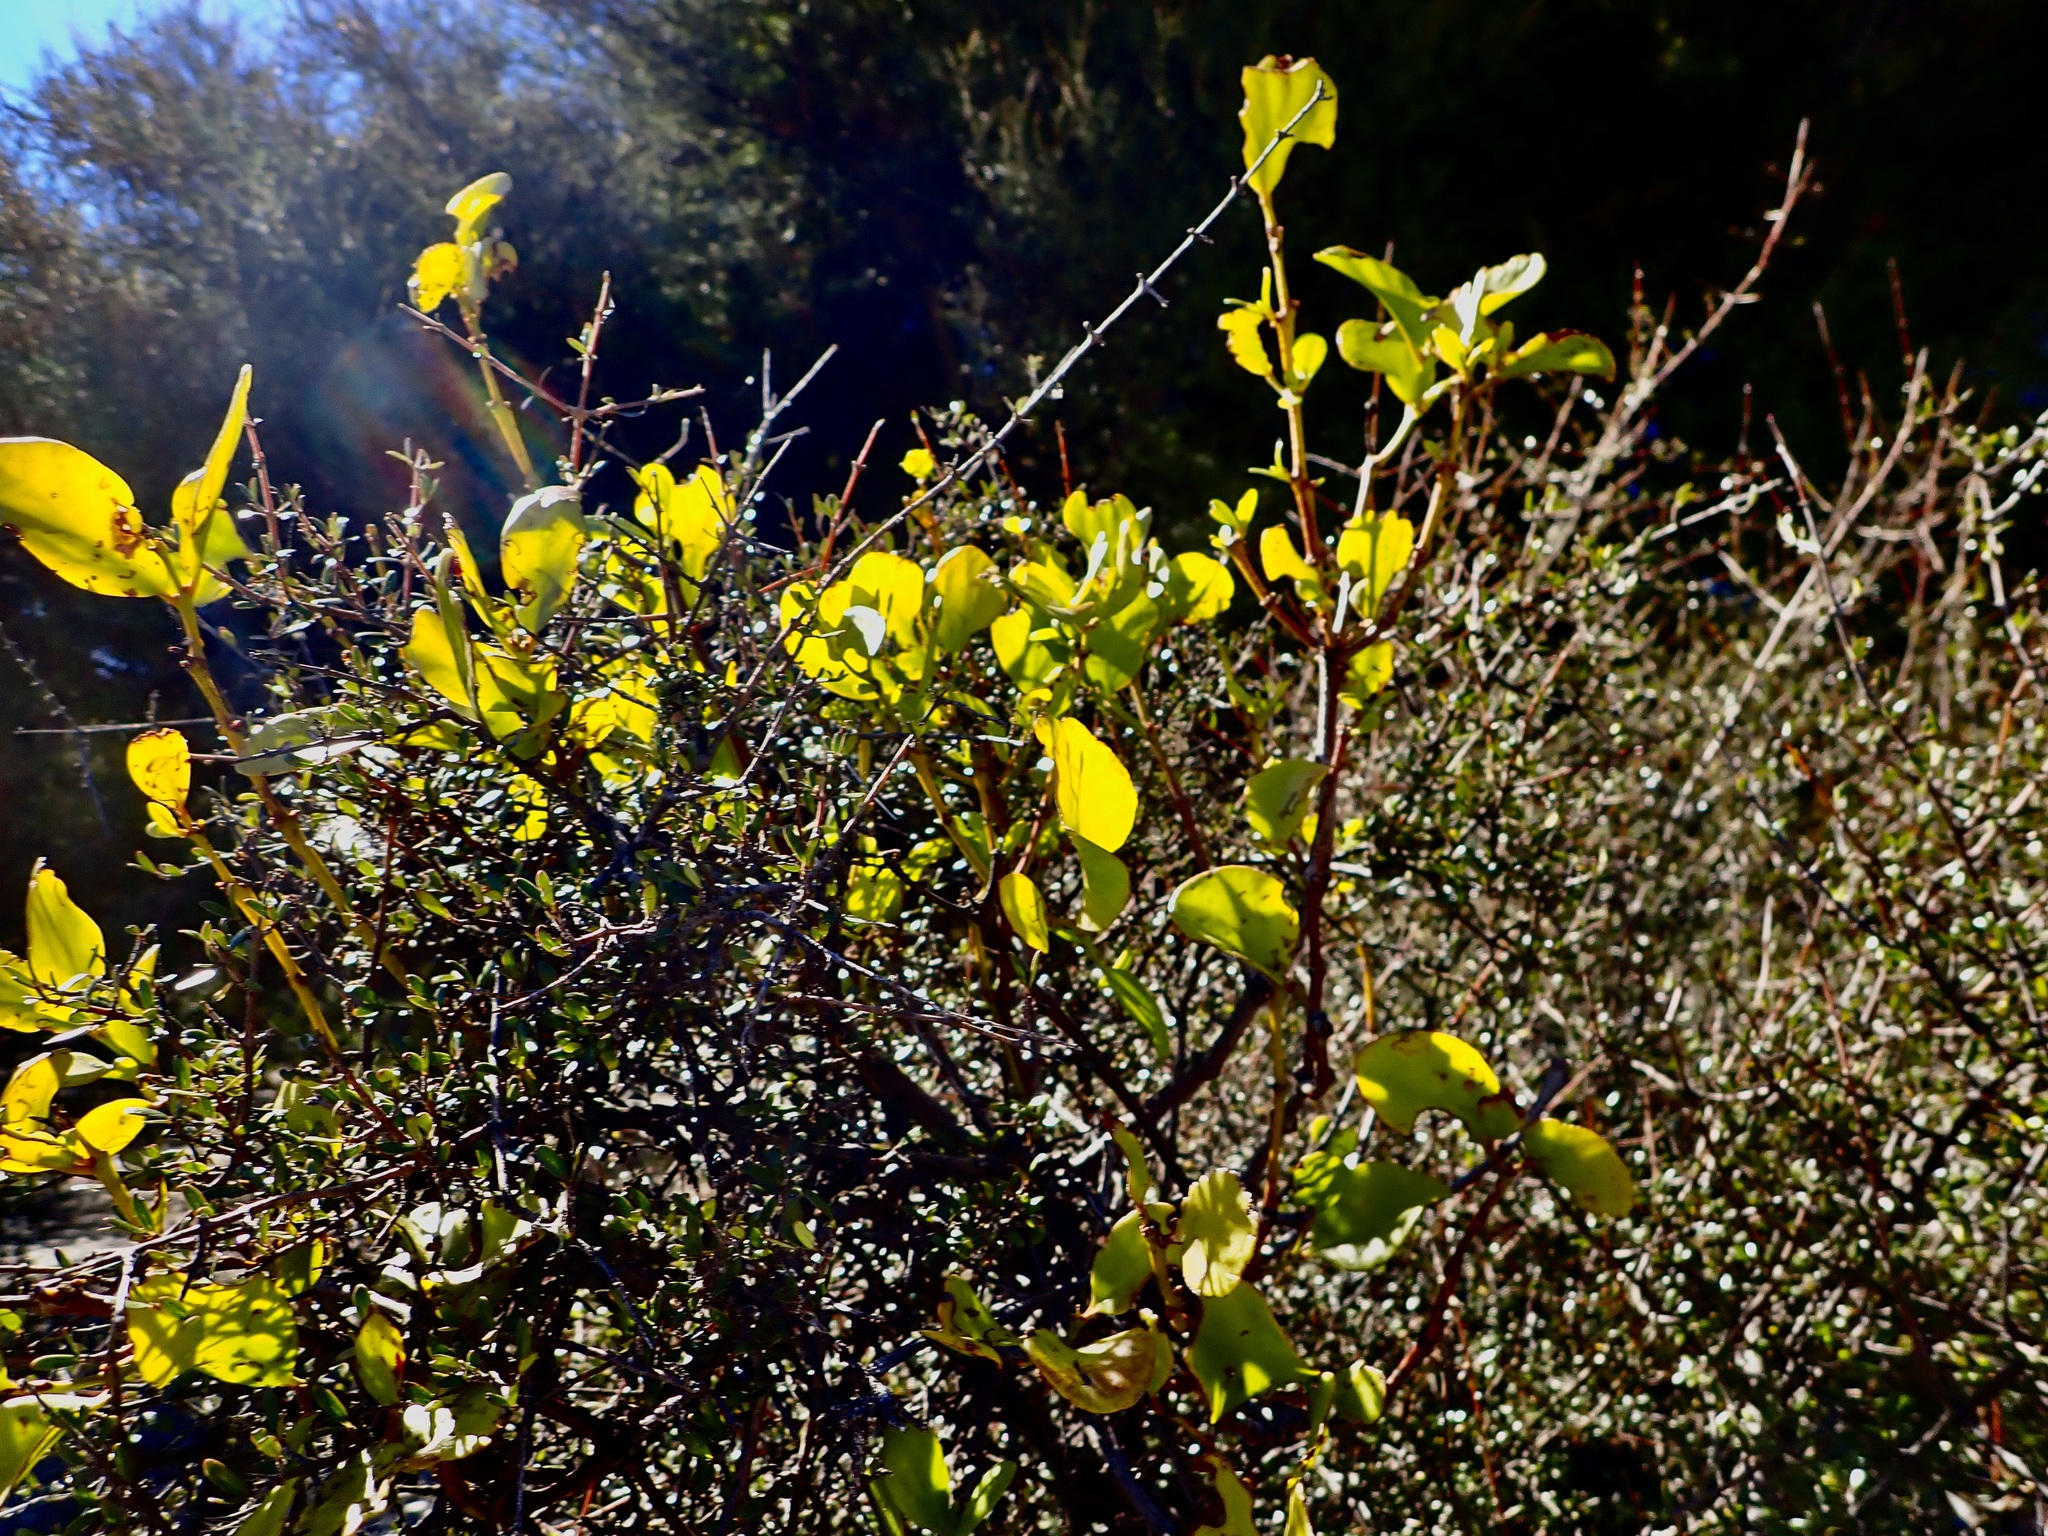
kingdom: Plantae
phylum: Tracheophyta
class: Magnoliopsida
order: Santalales
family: Loranthaceae
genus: Ileostylus
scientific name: Ileostylus micranthus
